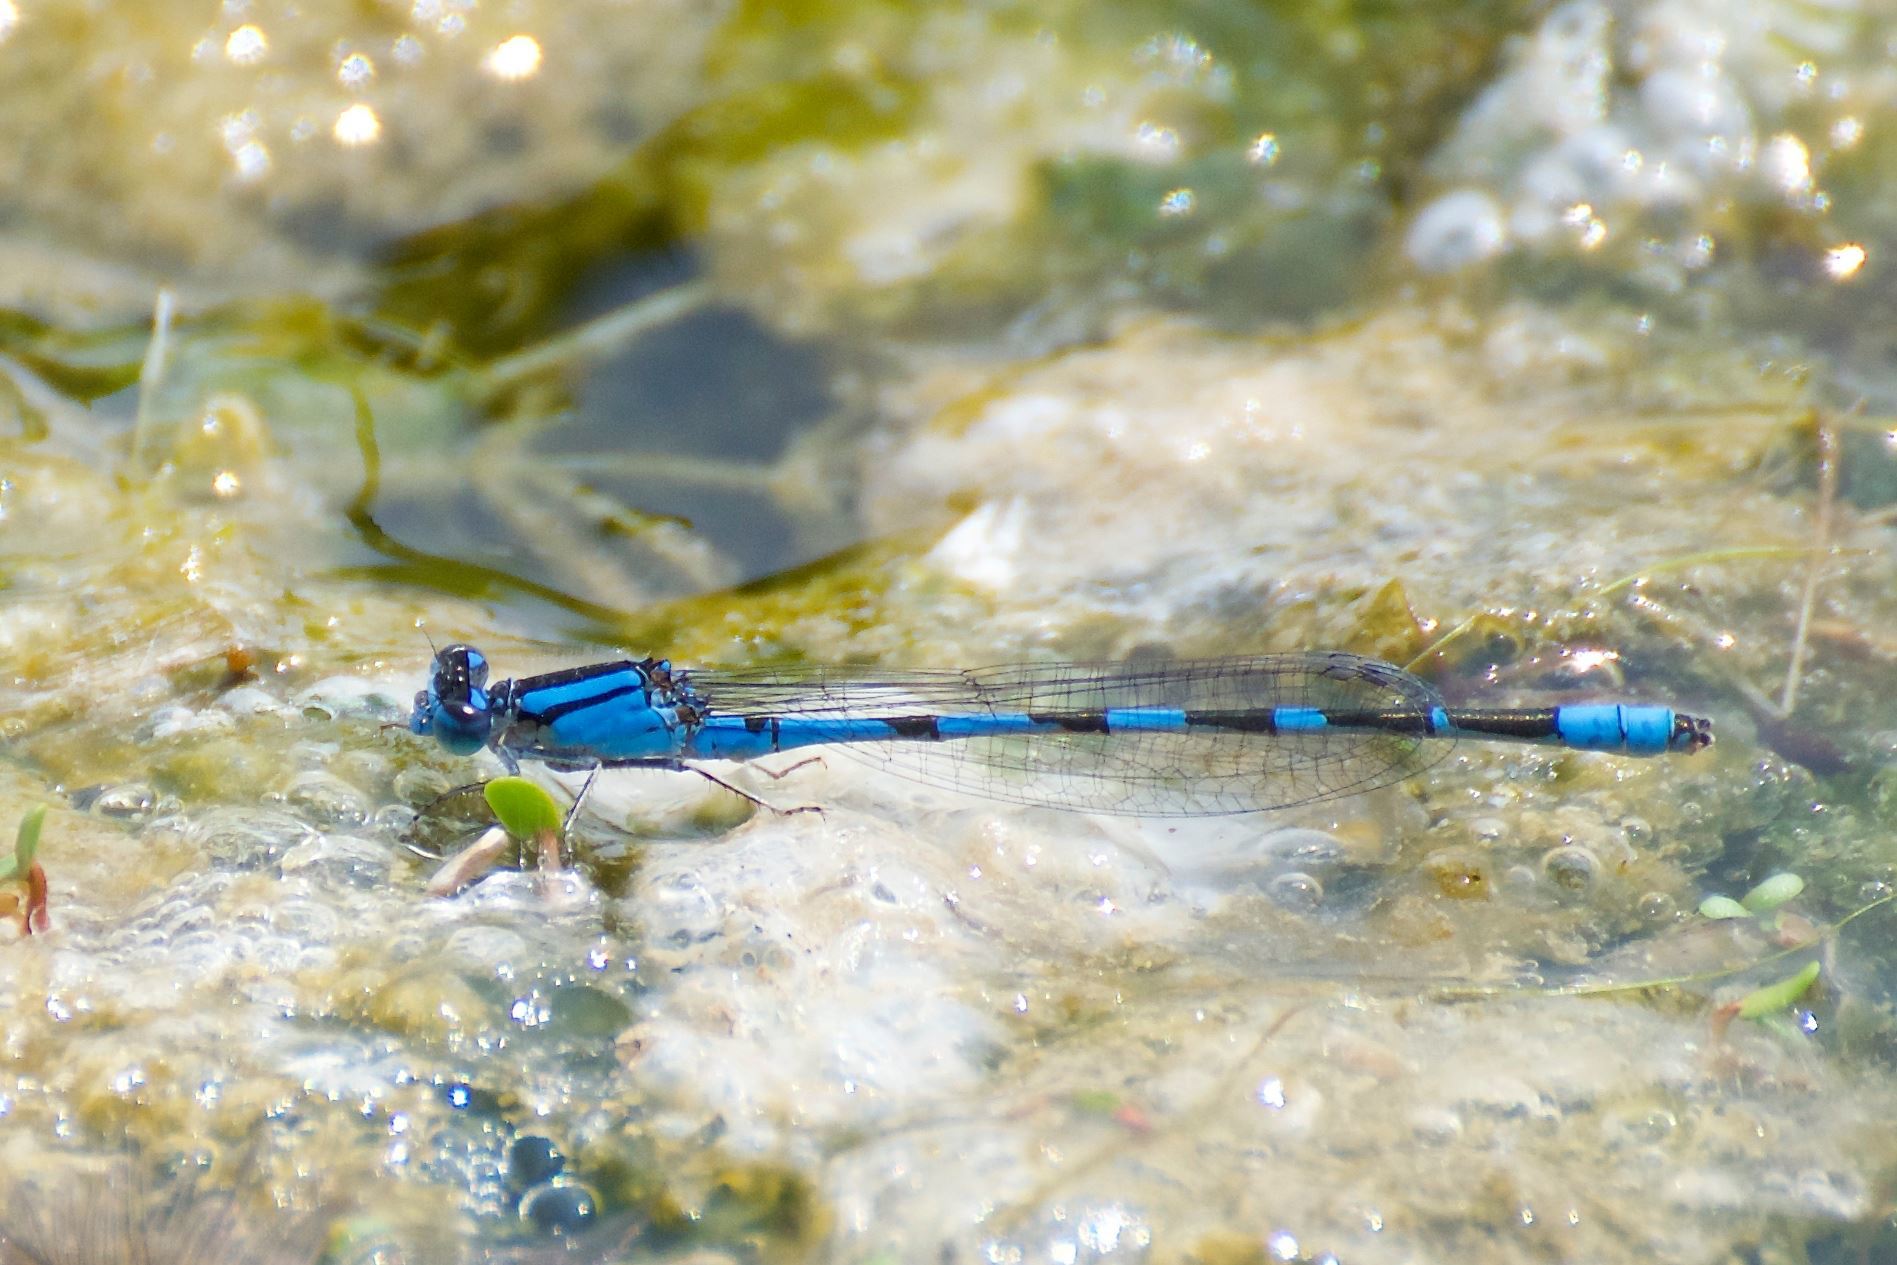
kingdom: Animalia
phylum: Arthropoda
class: Insecta
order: Odonata
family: Coenagrionidae
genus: Enallagma
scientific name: Enallagma carunculatum
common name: Tule bluet
